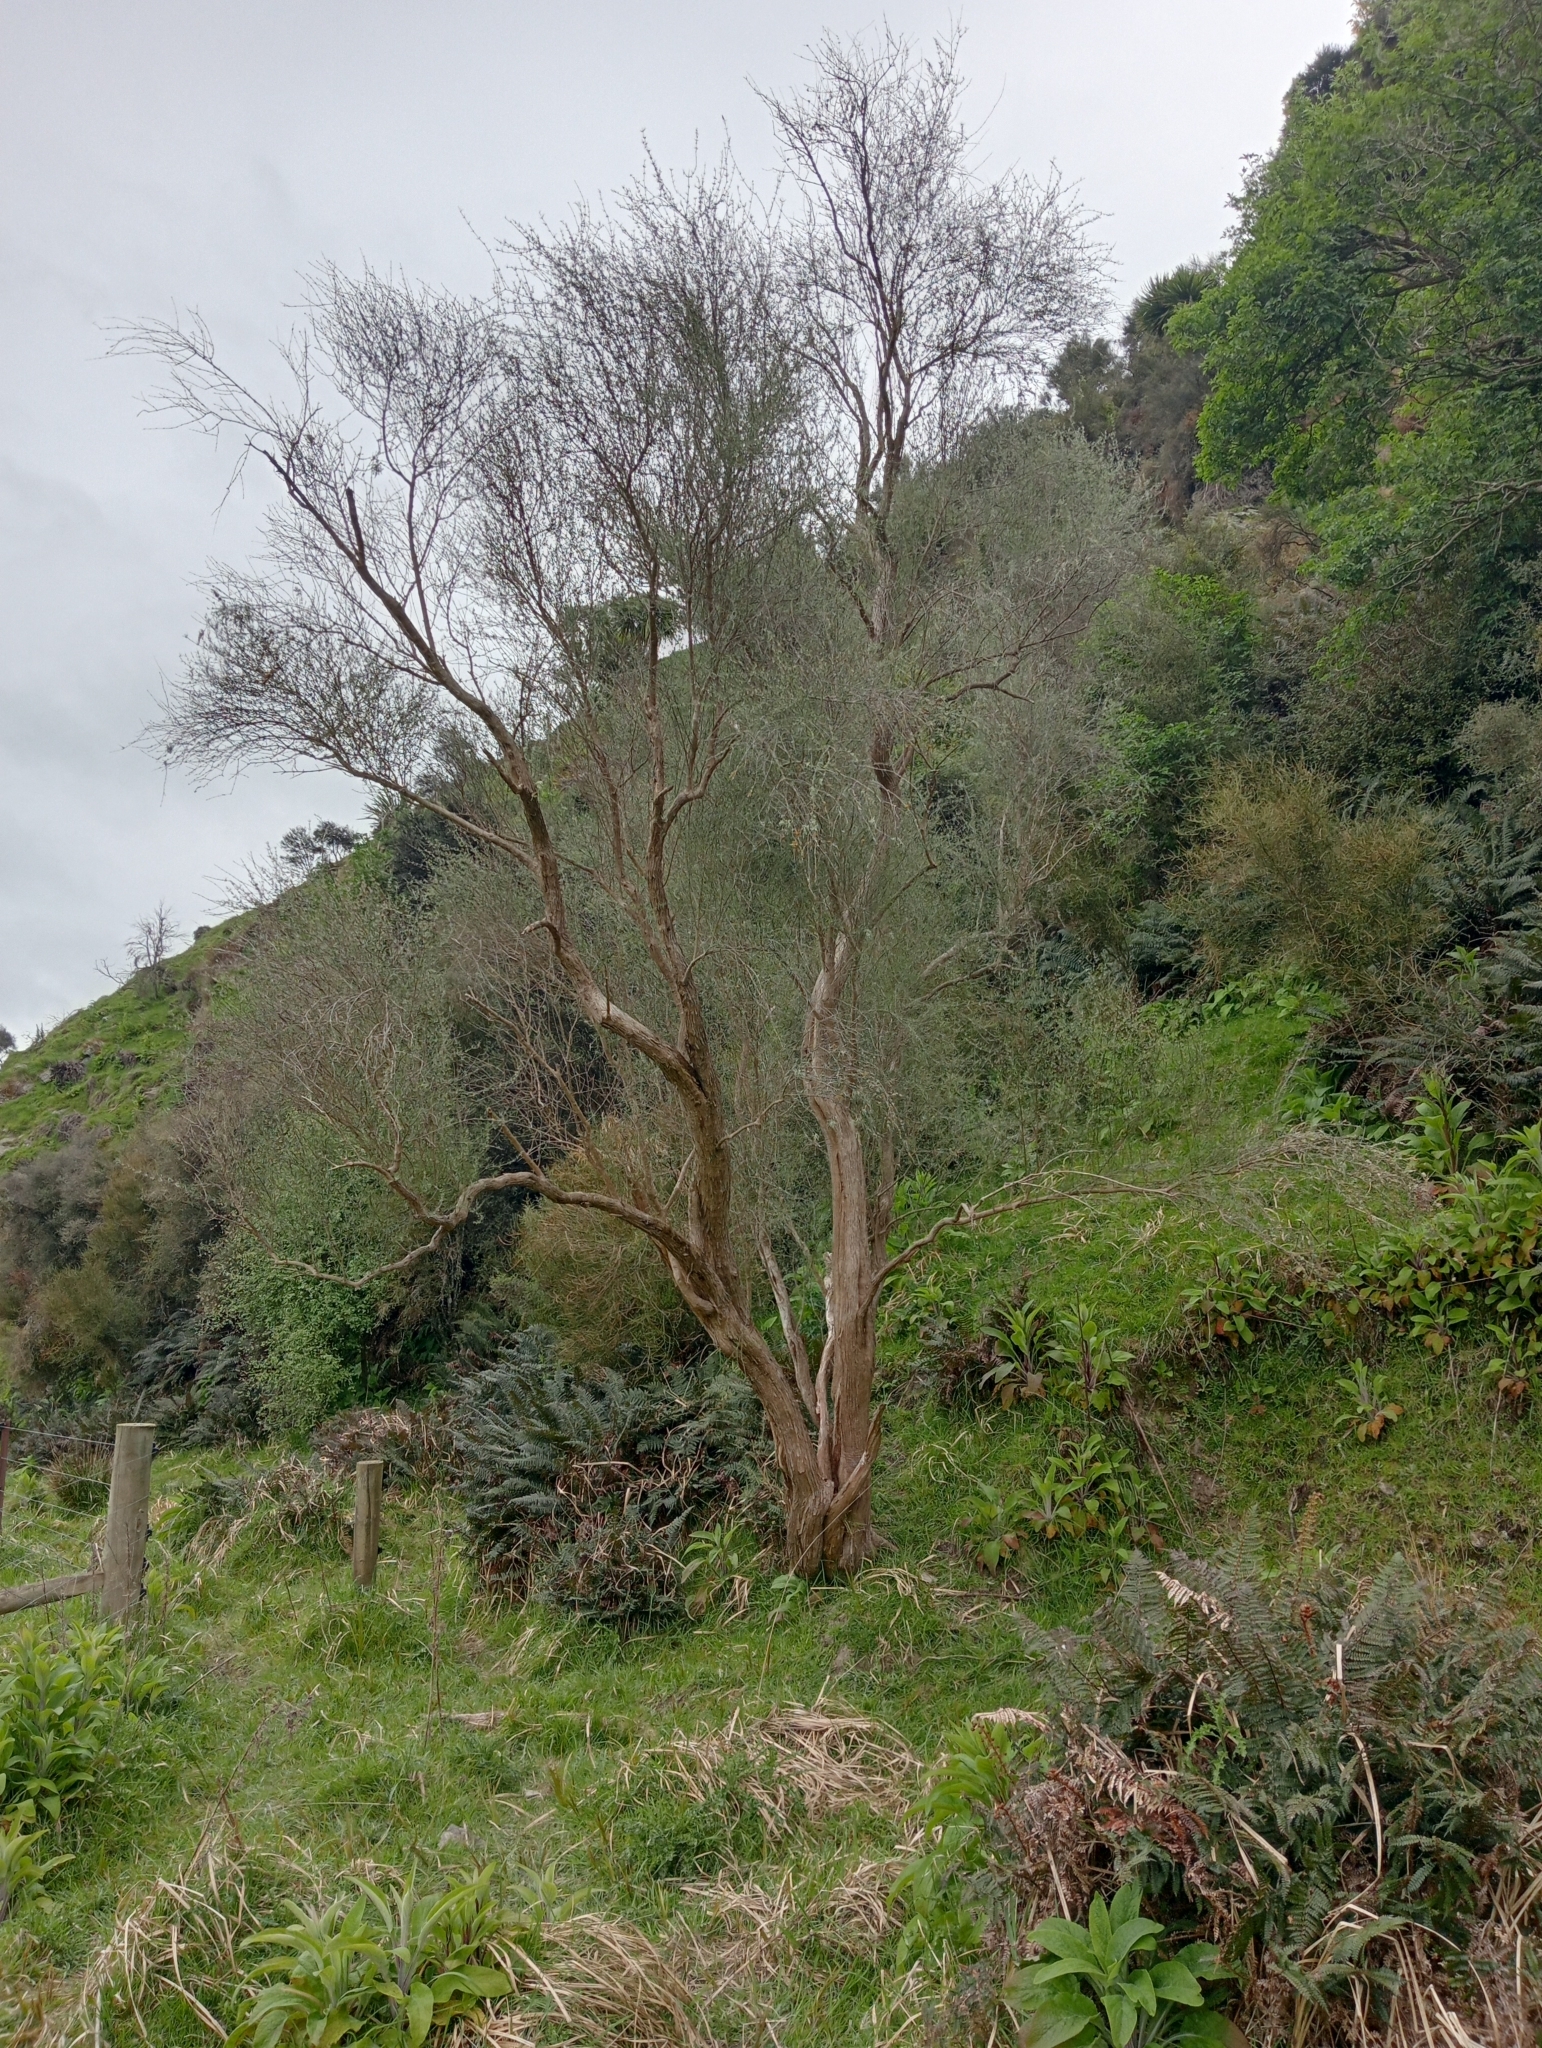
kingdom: Plantae
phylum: Tracheophyta
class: Magnoliopsida
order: Asterales
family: Asteraceae
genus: Olearia
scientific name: Olearia lineata
